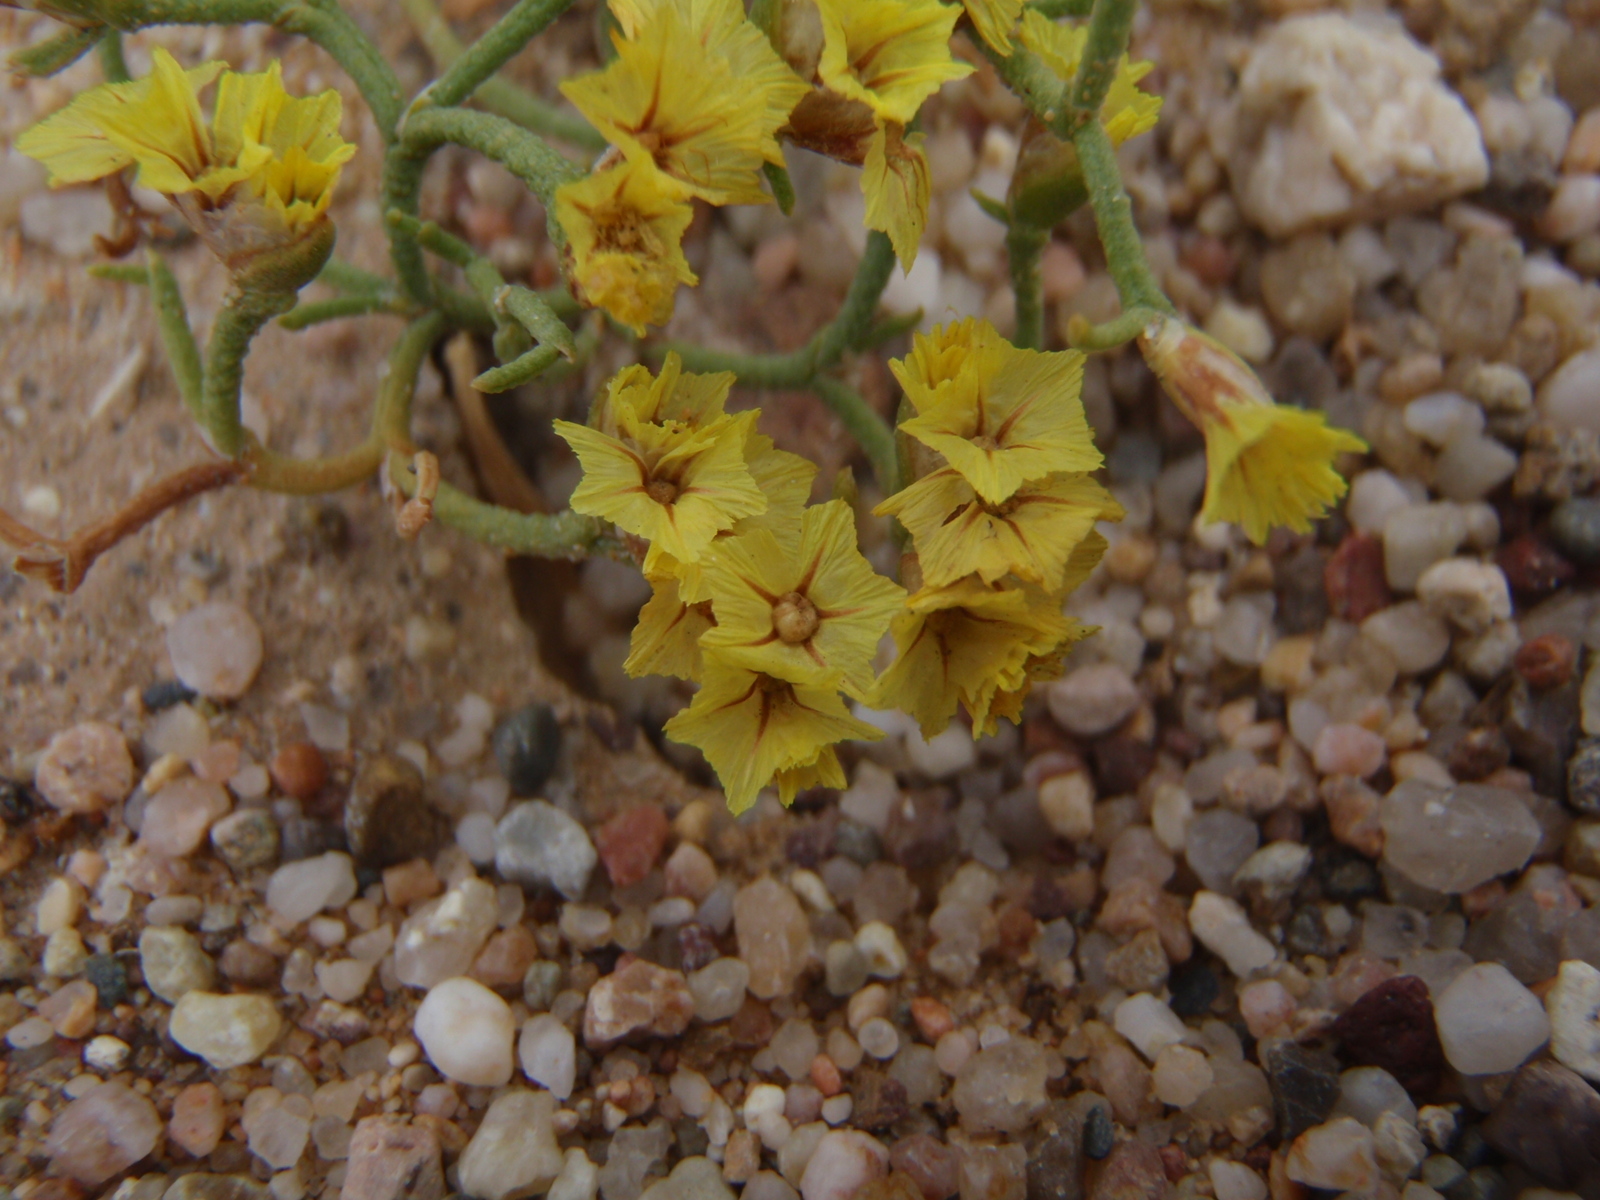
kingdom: Plantae
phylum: Tracheophyta
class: Magnoliopsida
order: Caryophyllales
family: Plumbaginaceae
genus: Limonium
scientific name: Limonium aureum
